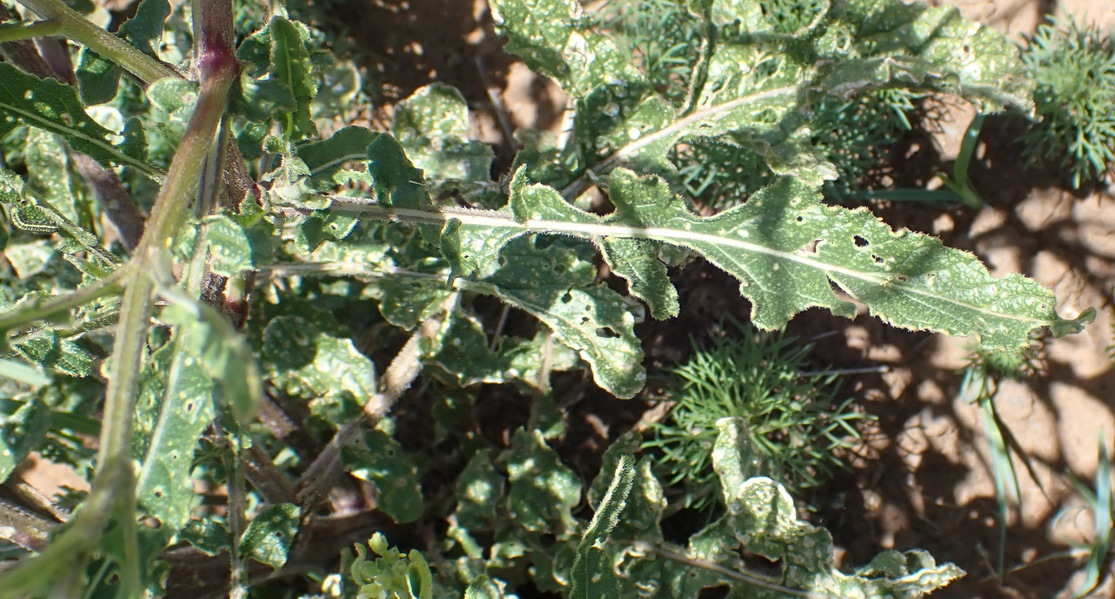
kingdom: Plantae
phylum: Tracheophyta
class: Magnoliopsida
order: Brassicales
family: Brassicaceae
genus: Erucastrum
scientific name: Erucastrum austroafricanum
